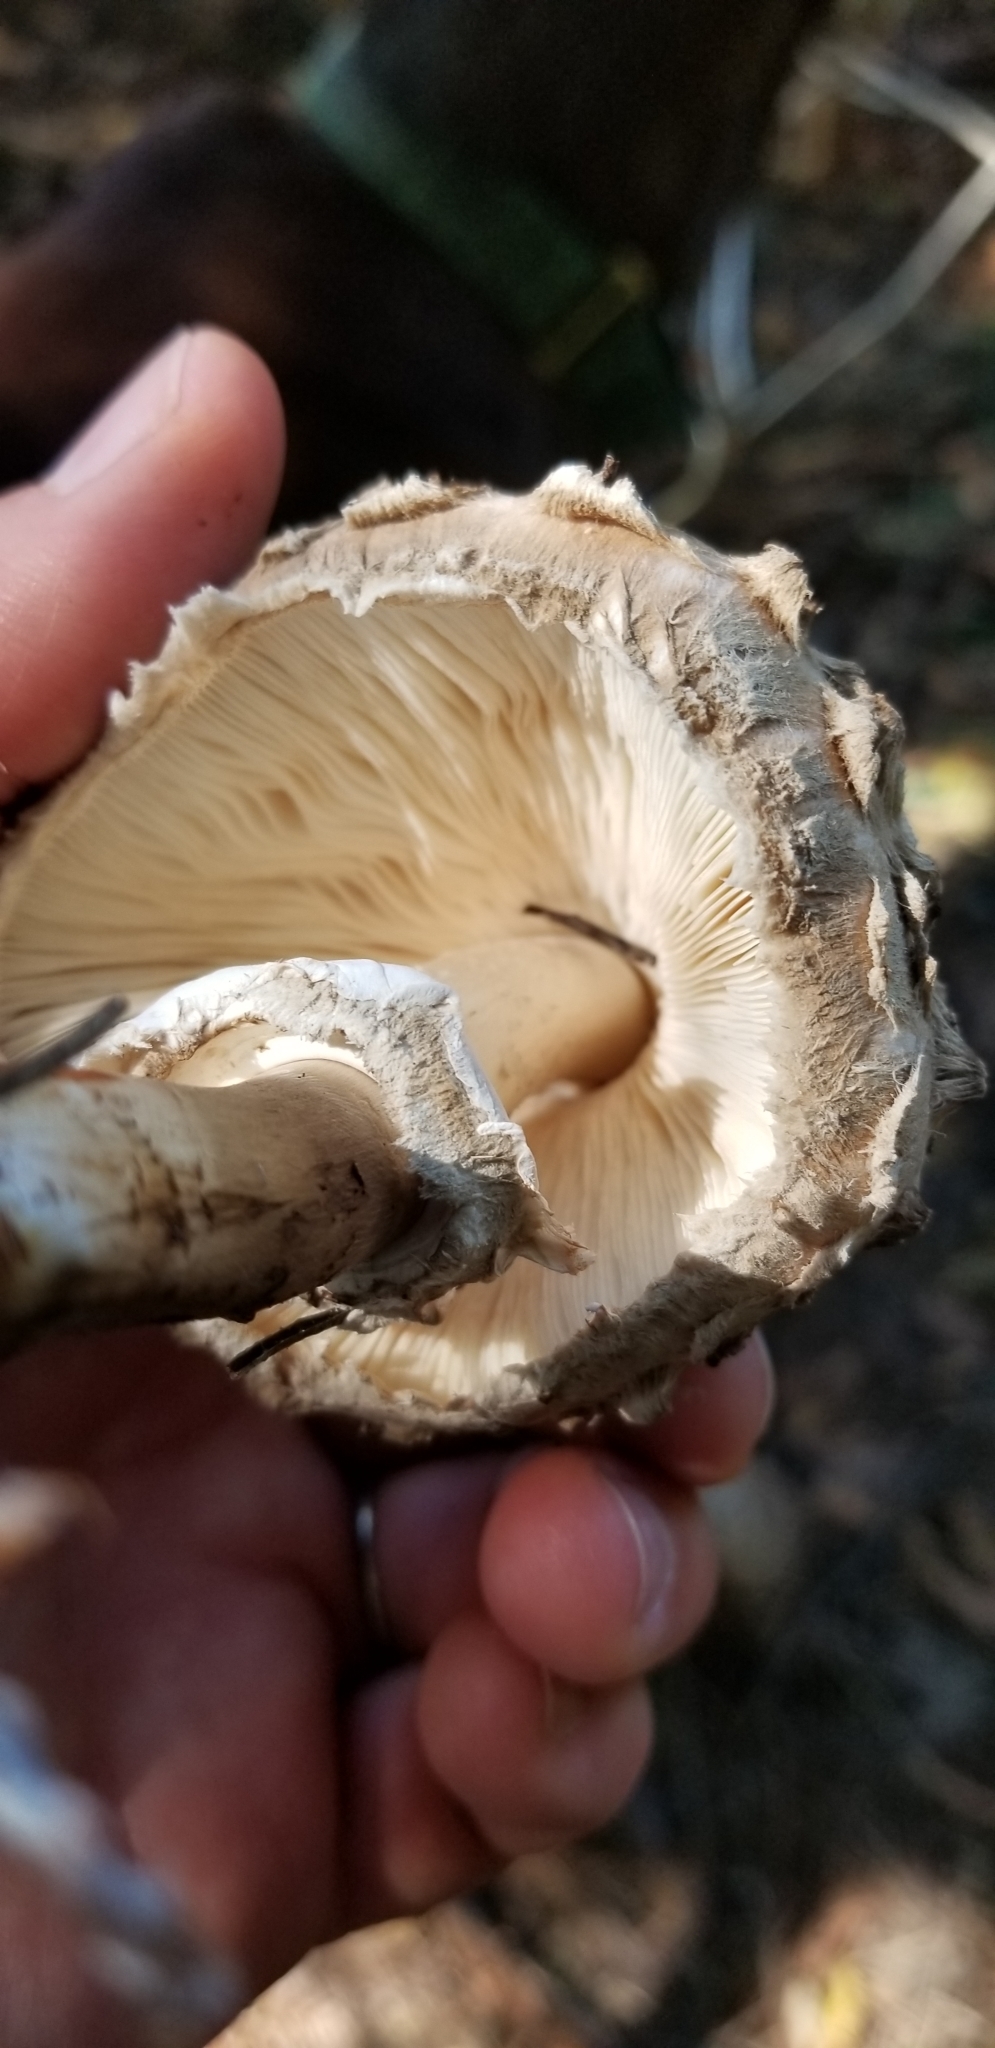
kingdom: Fungi
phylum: Basidiomycota
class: Agaricomycetes
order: Agaricales
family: Agaricaceae
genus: Chlorophyllum
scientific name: Chlorophyllum olivieri
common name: Conifer parasol
